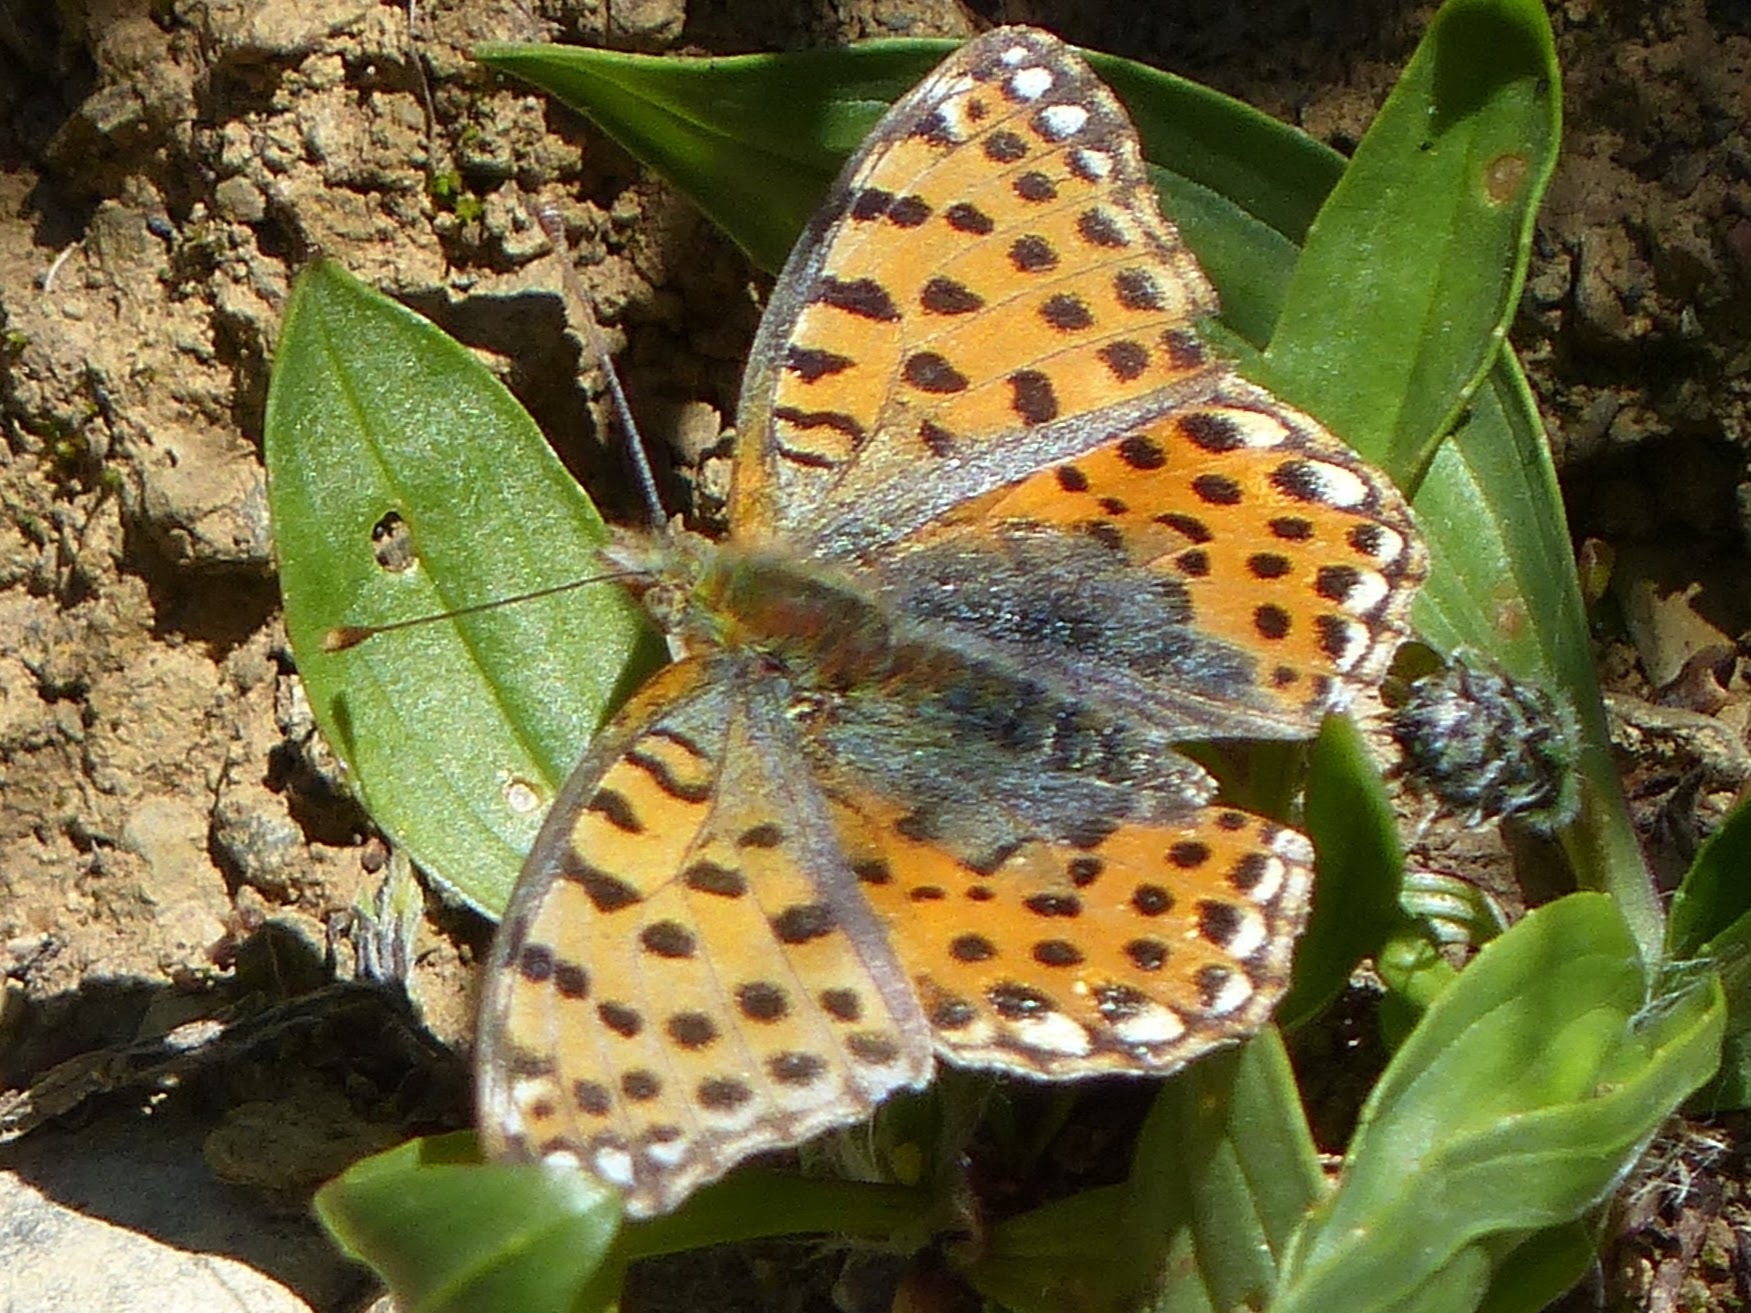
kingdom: Animalia
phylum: Arthropoda
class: Insecta
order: Lepidoptera
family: Nymphalidae
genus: Issoria
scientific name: Issoria lathonia
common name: Queen of spain fritillary
